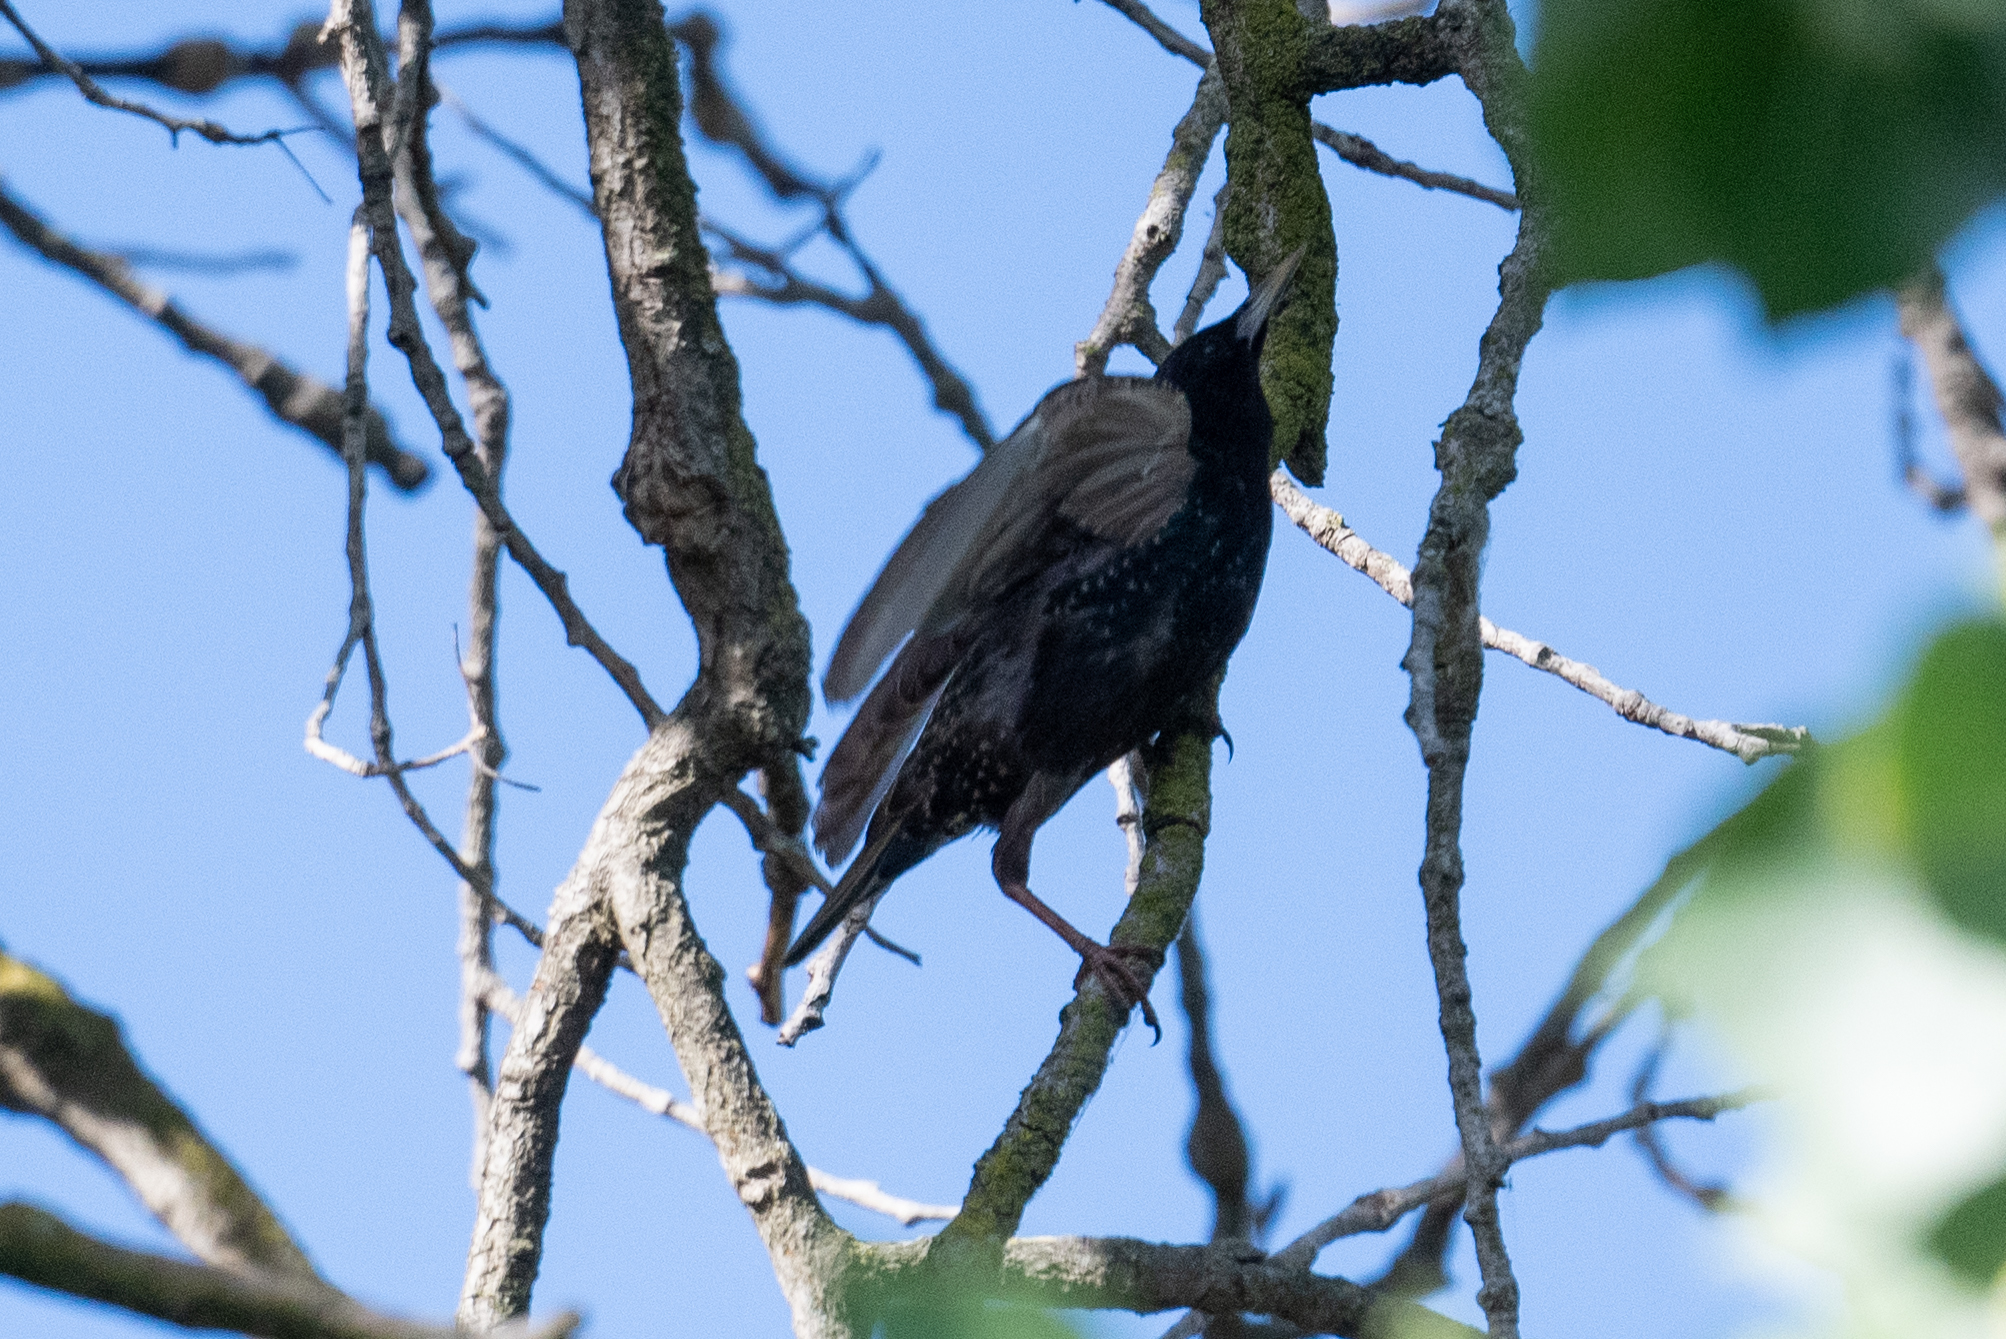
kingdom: Animalia
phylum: Chordata
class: Aves
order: Passeriformes
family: Sturnidae
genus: Sturnus
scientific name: Sturnus vulgaris
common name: Common starling
